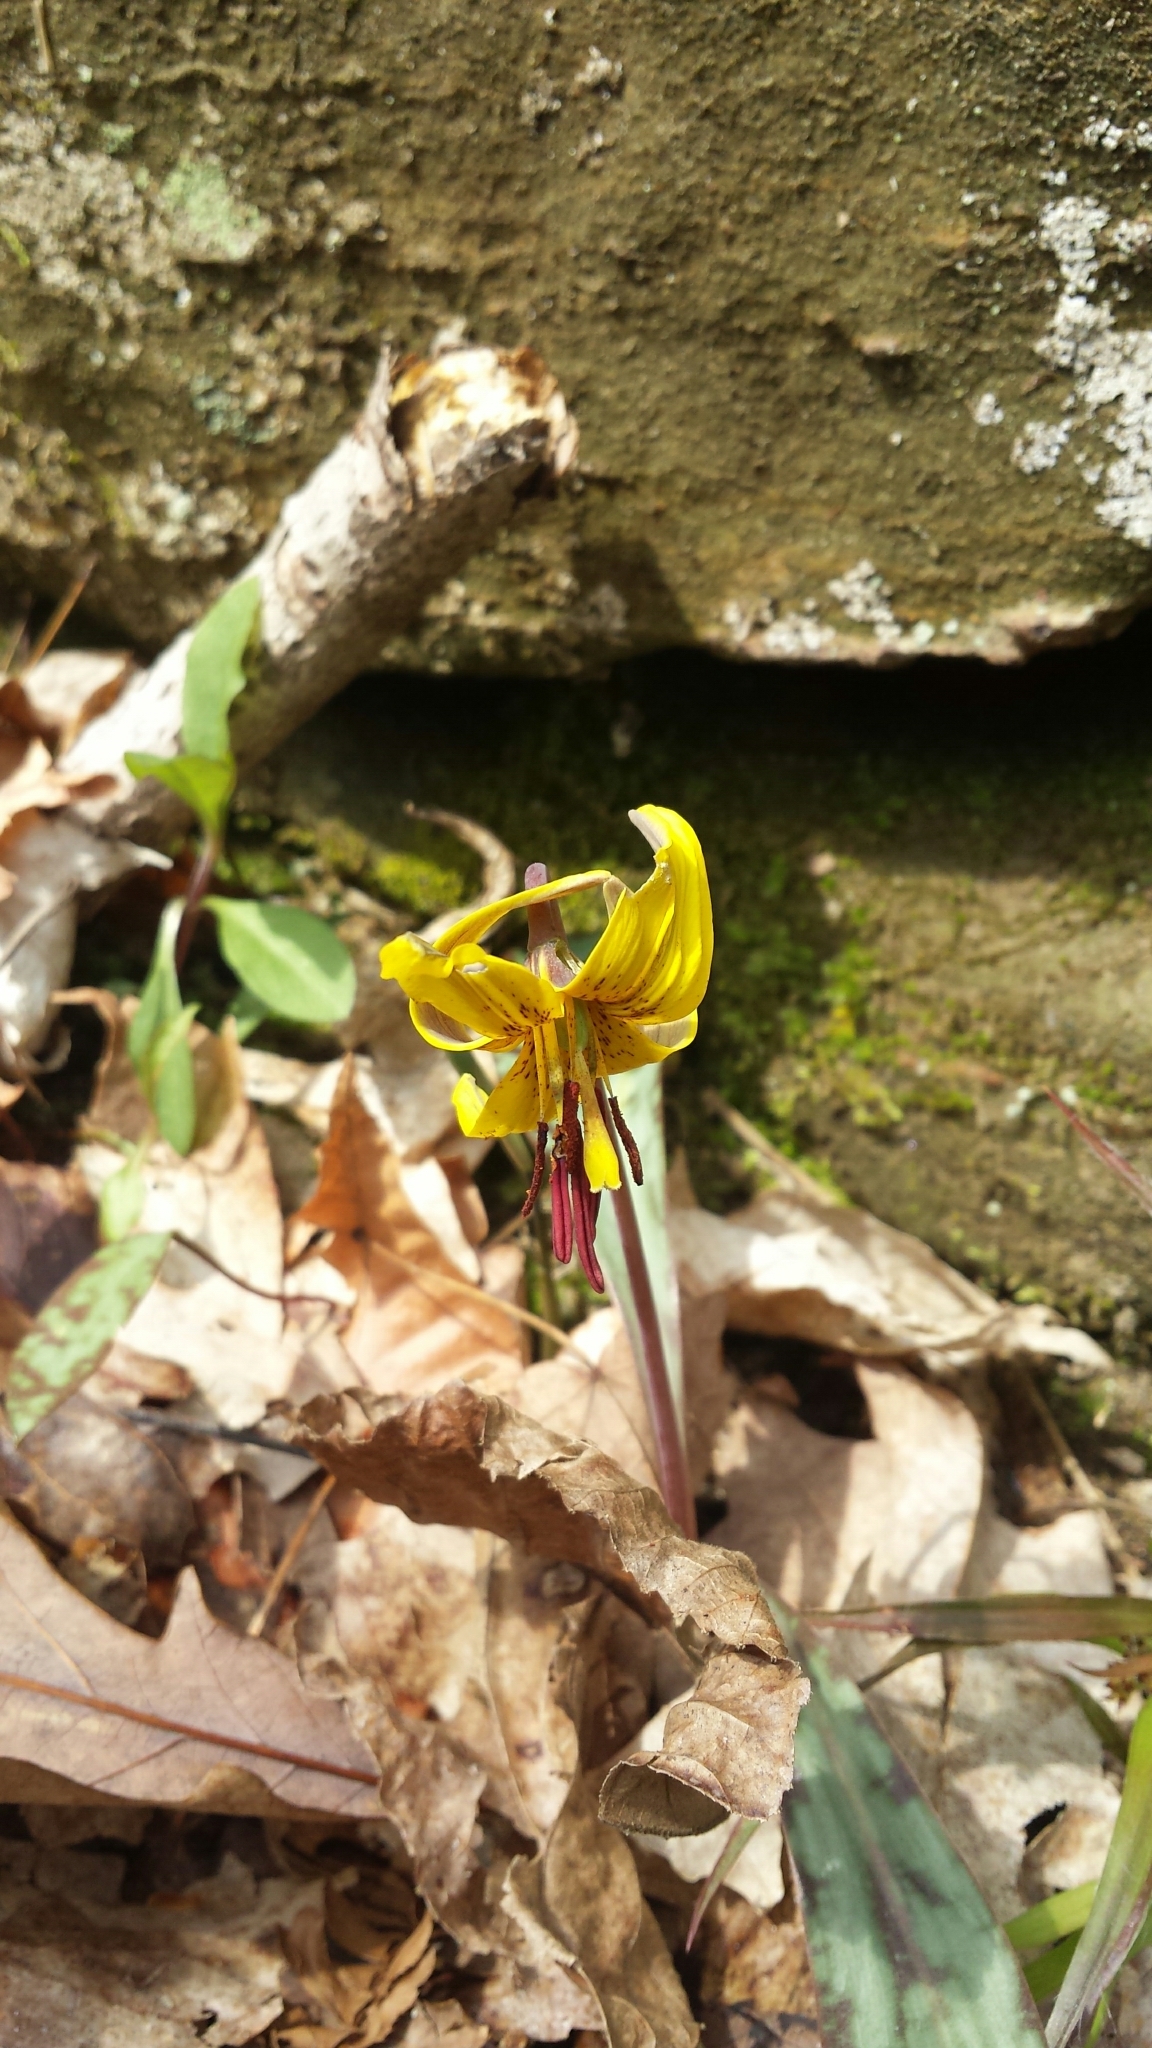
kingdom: Plantae
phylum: Tracheophyta
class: Liliopsida
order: Liliales
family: Liliaceae
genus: Erythronium
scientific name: Erythronium americanum
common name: Yellow adder's-tongue
